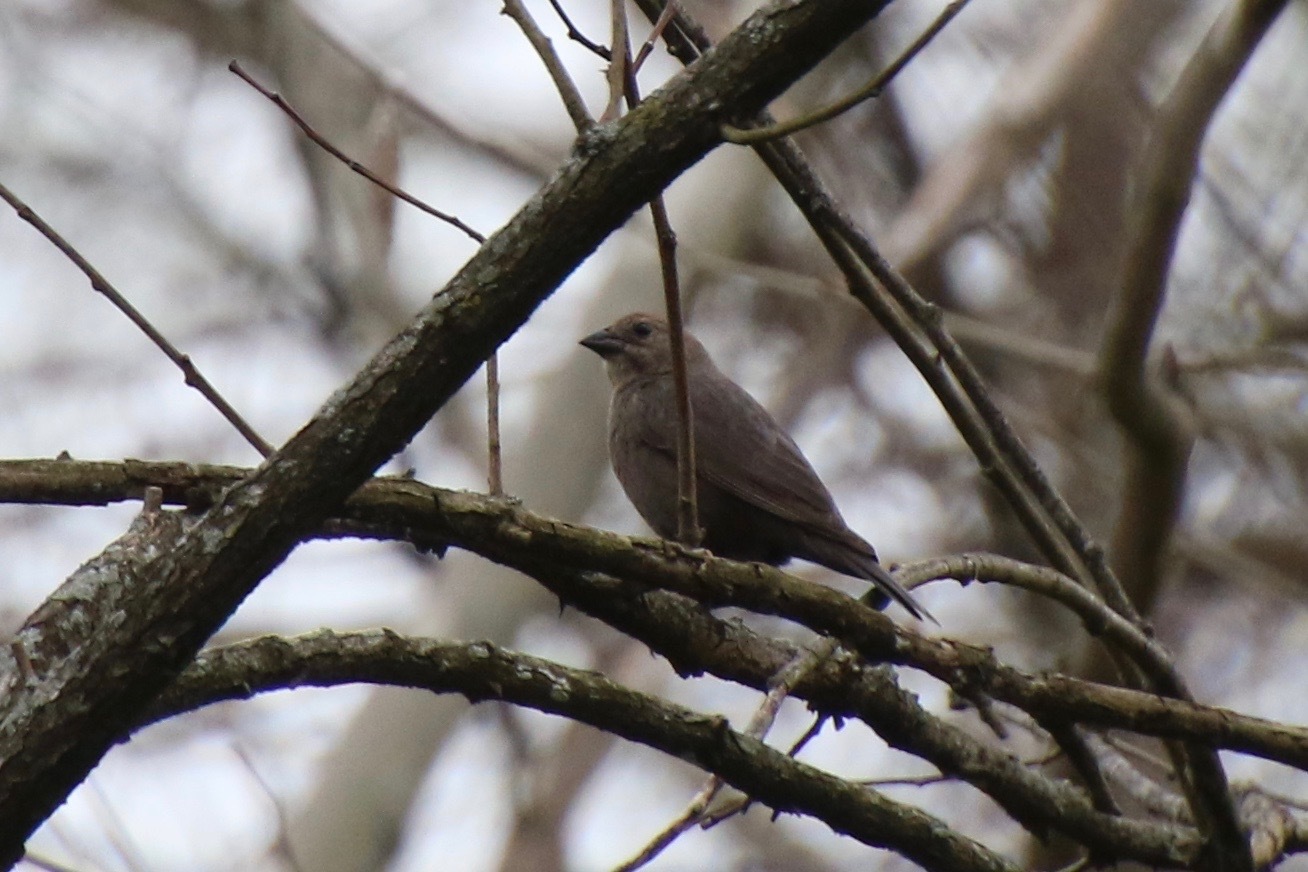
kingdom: Animalia
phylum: Chordata
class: Aves
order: Passeriformes
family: Icteridae
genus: Molothrus
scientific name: Molothrus ater
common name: Brown-headed cowbird
